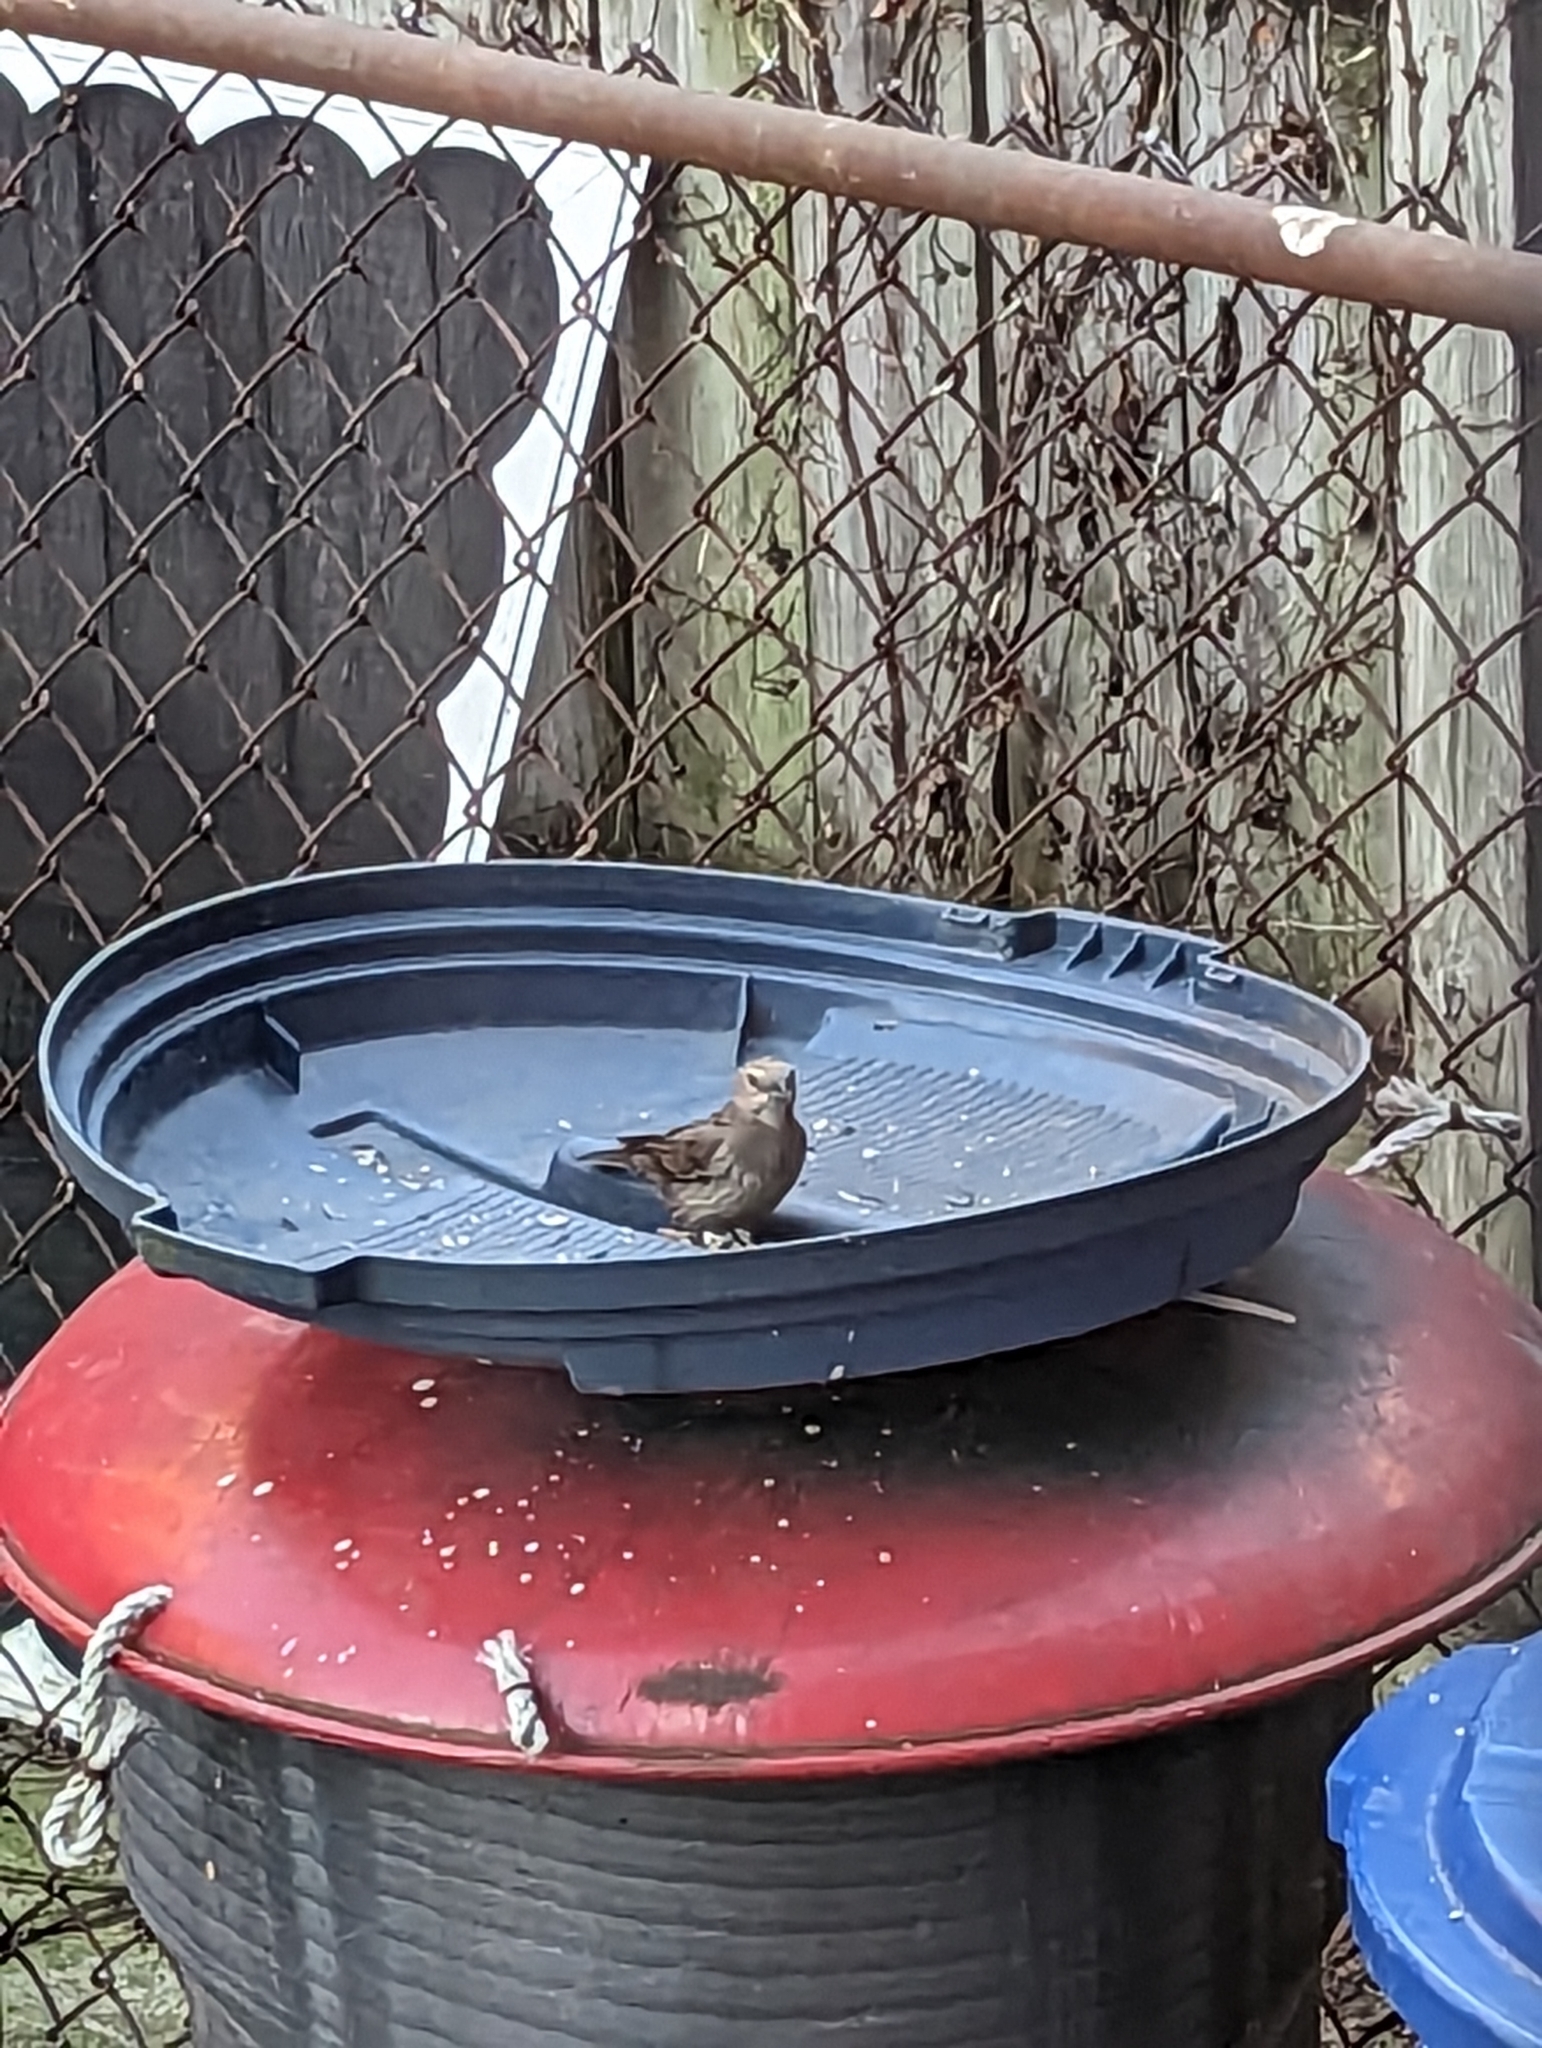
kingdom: Animalia
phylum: Chordata
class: Aves
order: Passeriformes
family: Icteridae
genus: Molothrus
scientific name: Molothrus ater
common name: Brown-headed cowbird
